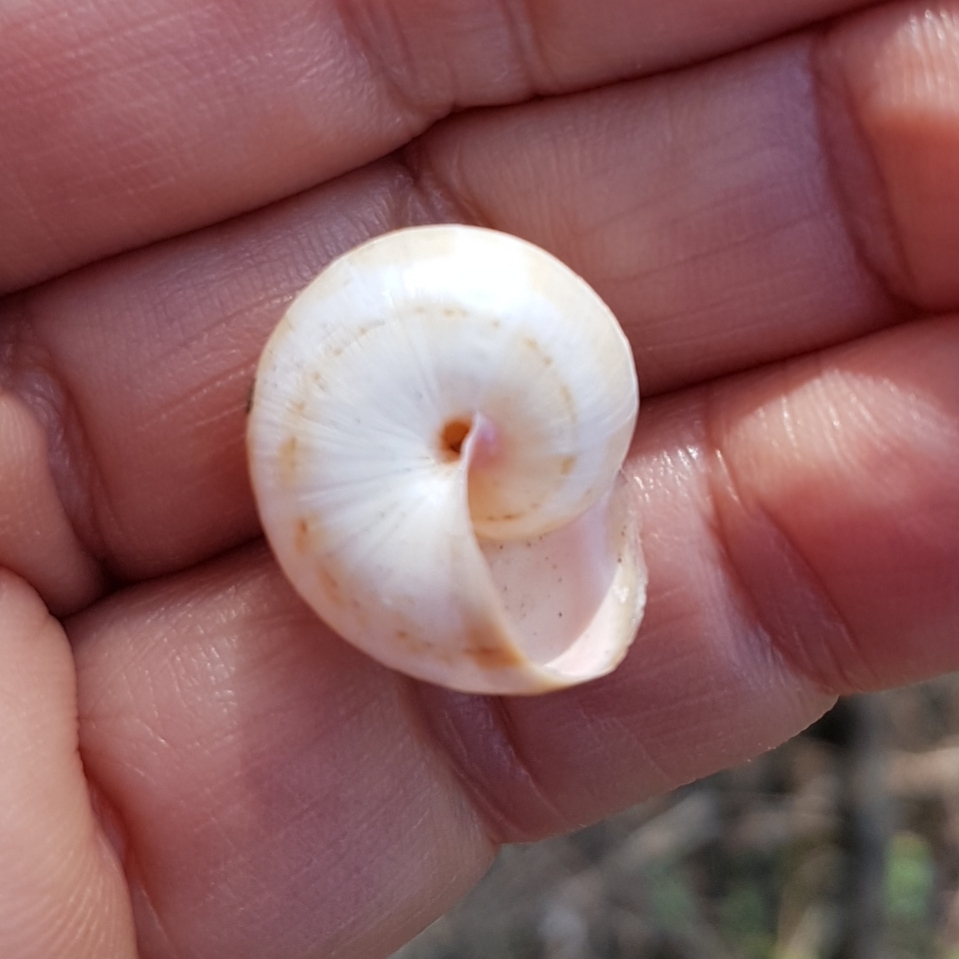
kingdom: Animalia
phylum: Mollusca
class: Gastropoda
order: Stylommatophora
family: Helicidae
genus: Theba
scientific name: Theba pisana
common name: White snail
